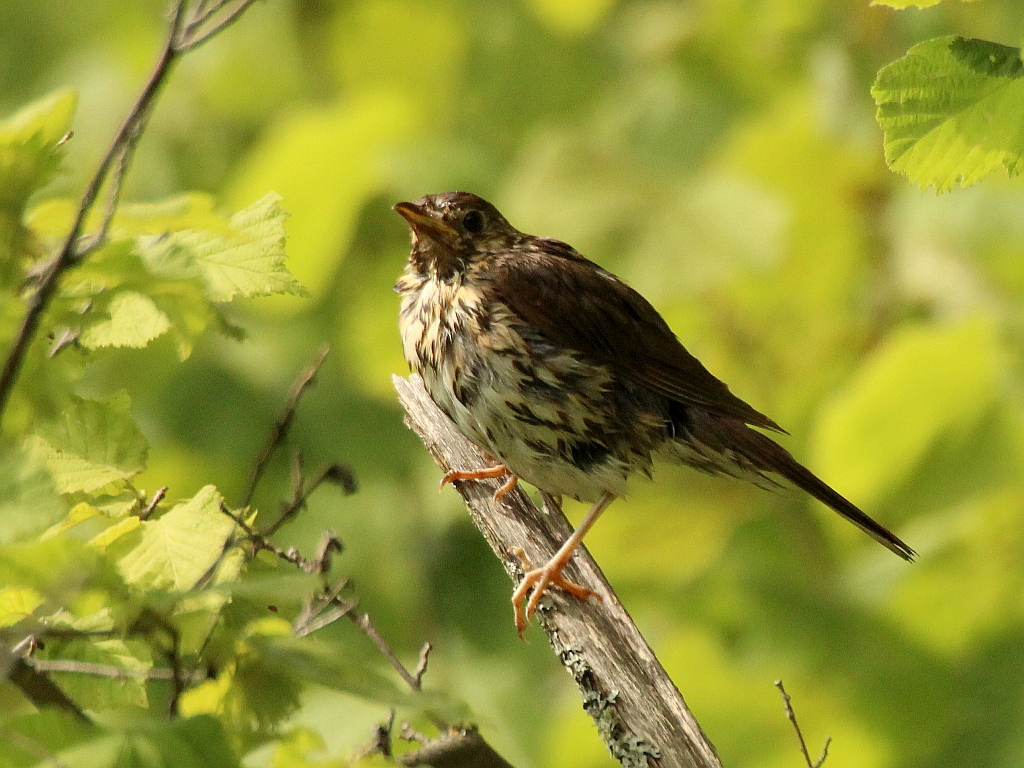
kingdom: Animalia
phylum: Chordata
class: Aves
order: Passeriformes
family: Turdidae
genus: Turdus
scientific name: Turdus philomelos
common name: Song thrush
